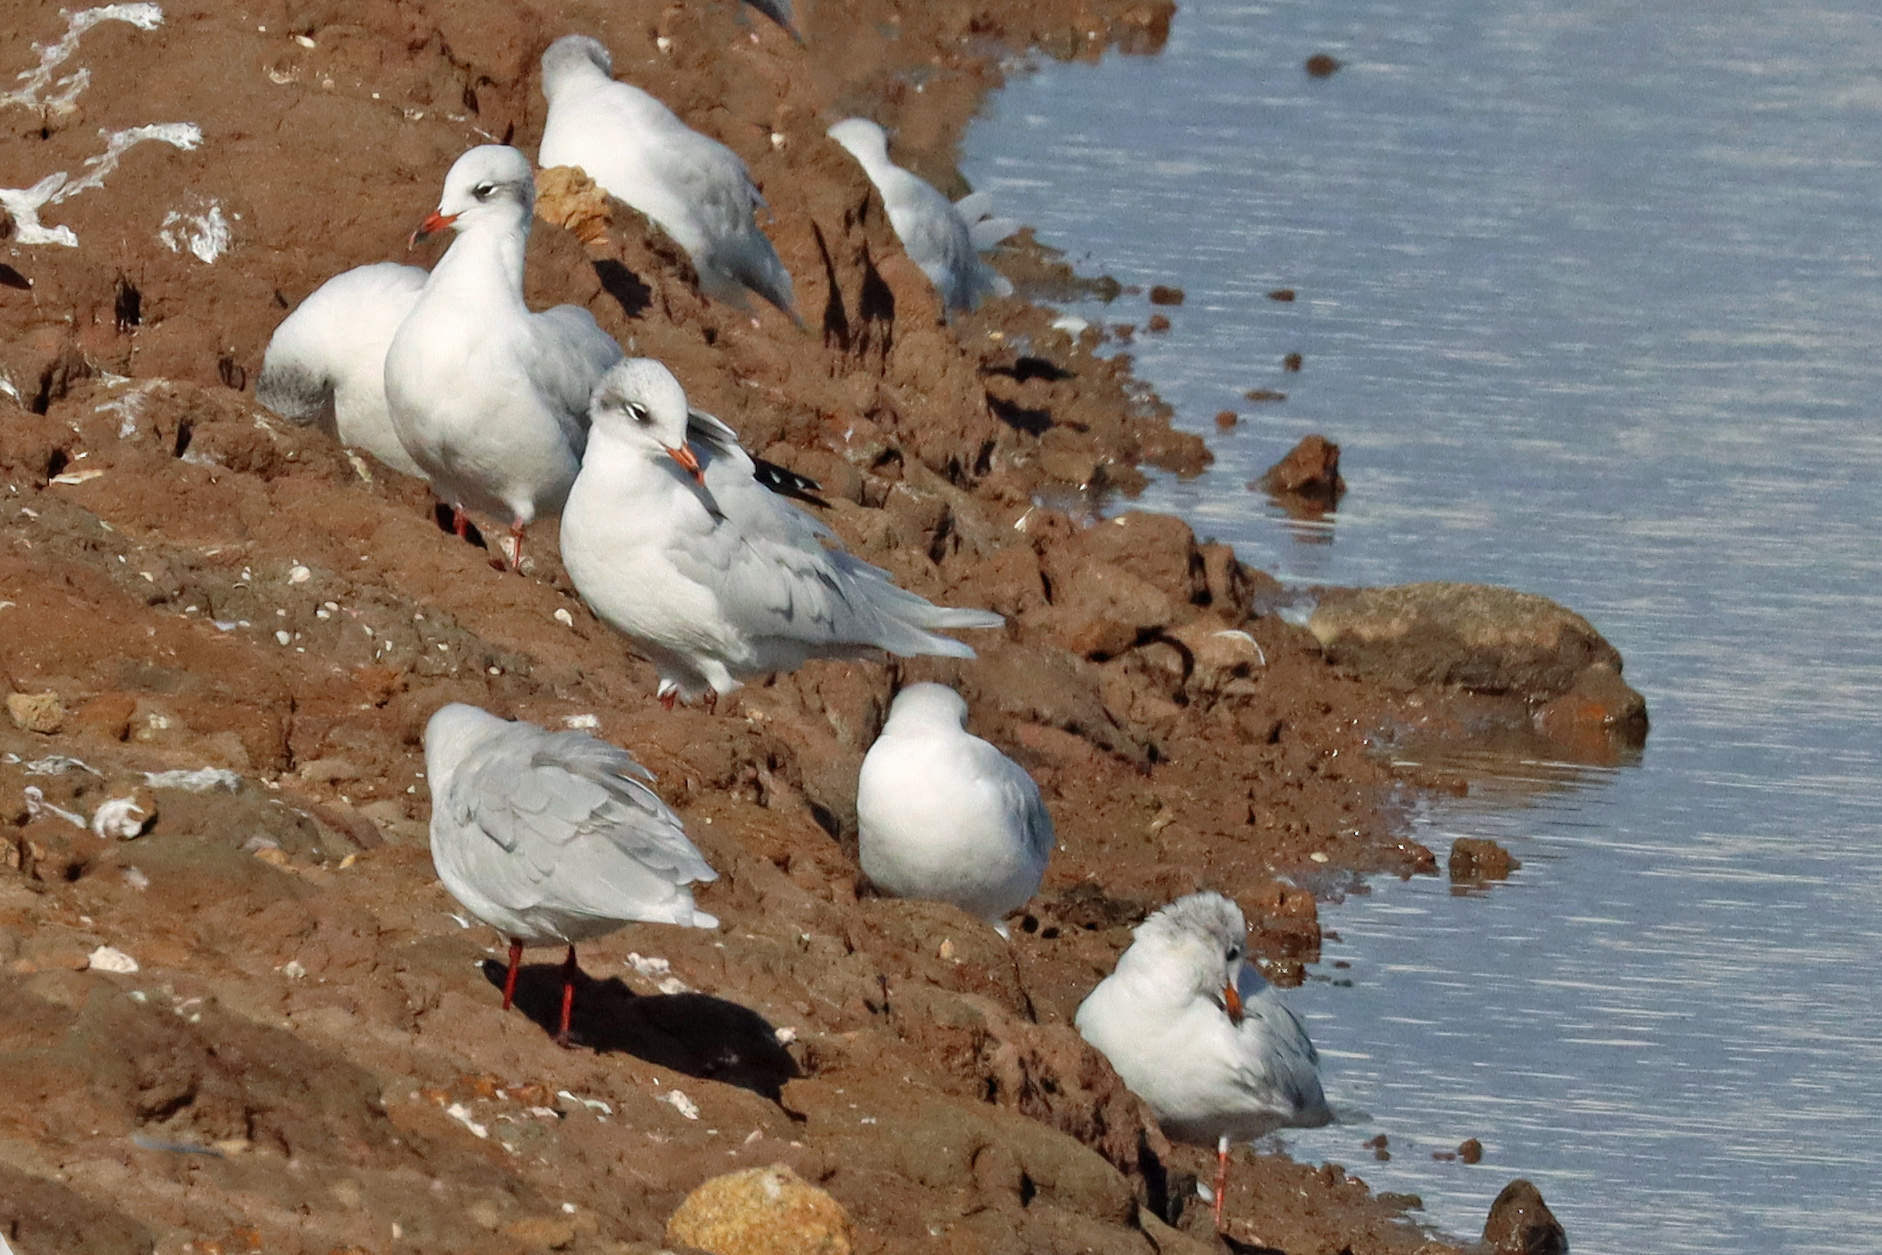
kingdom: Animalia
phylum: Chordata
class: Aves
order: Charadriiformes
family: Laridae
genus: Ichthyaetus
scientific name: Ichthyaetus melanocephalus
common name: Mediterranean gull
